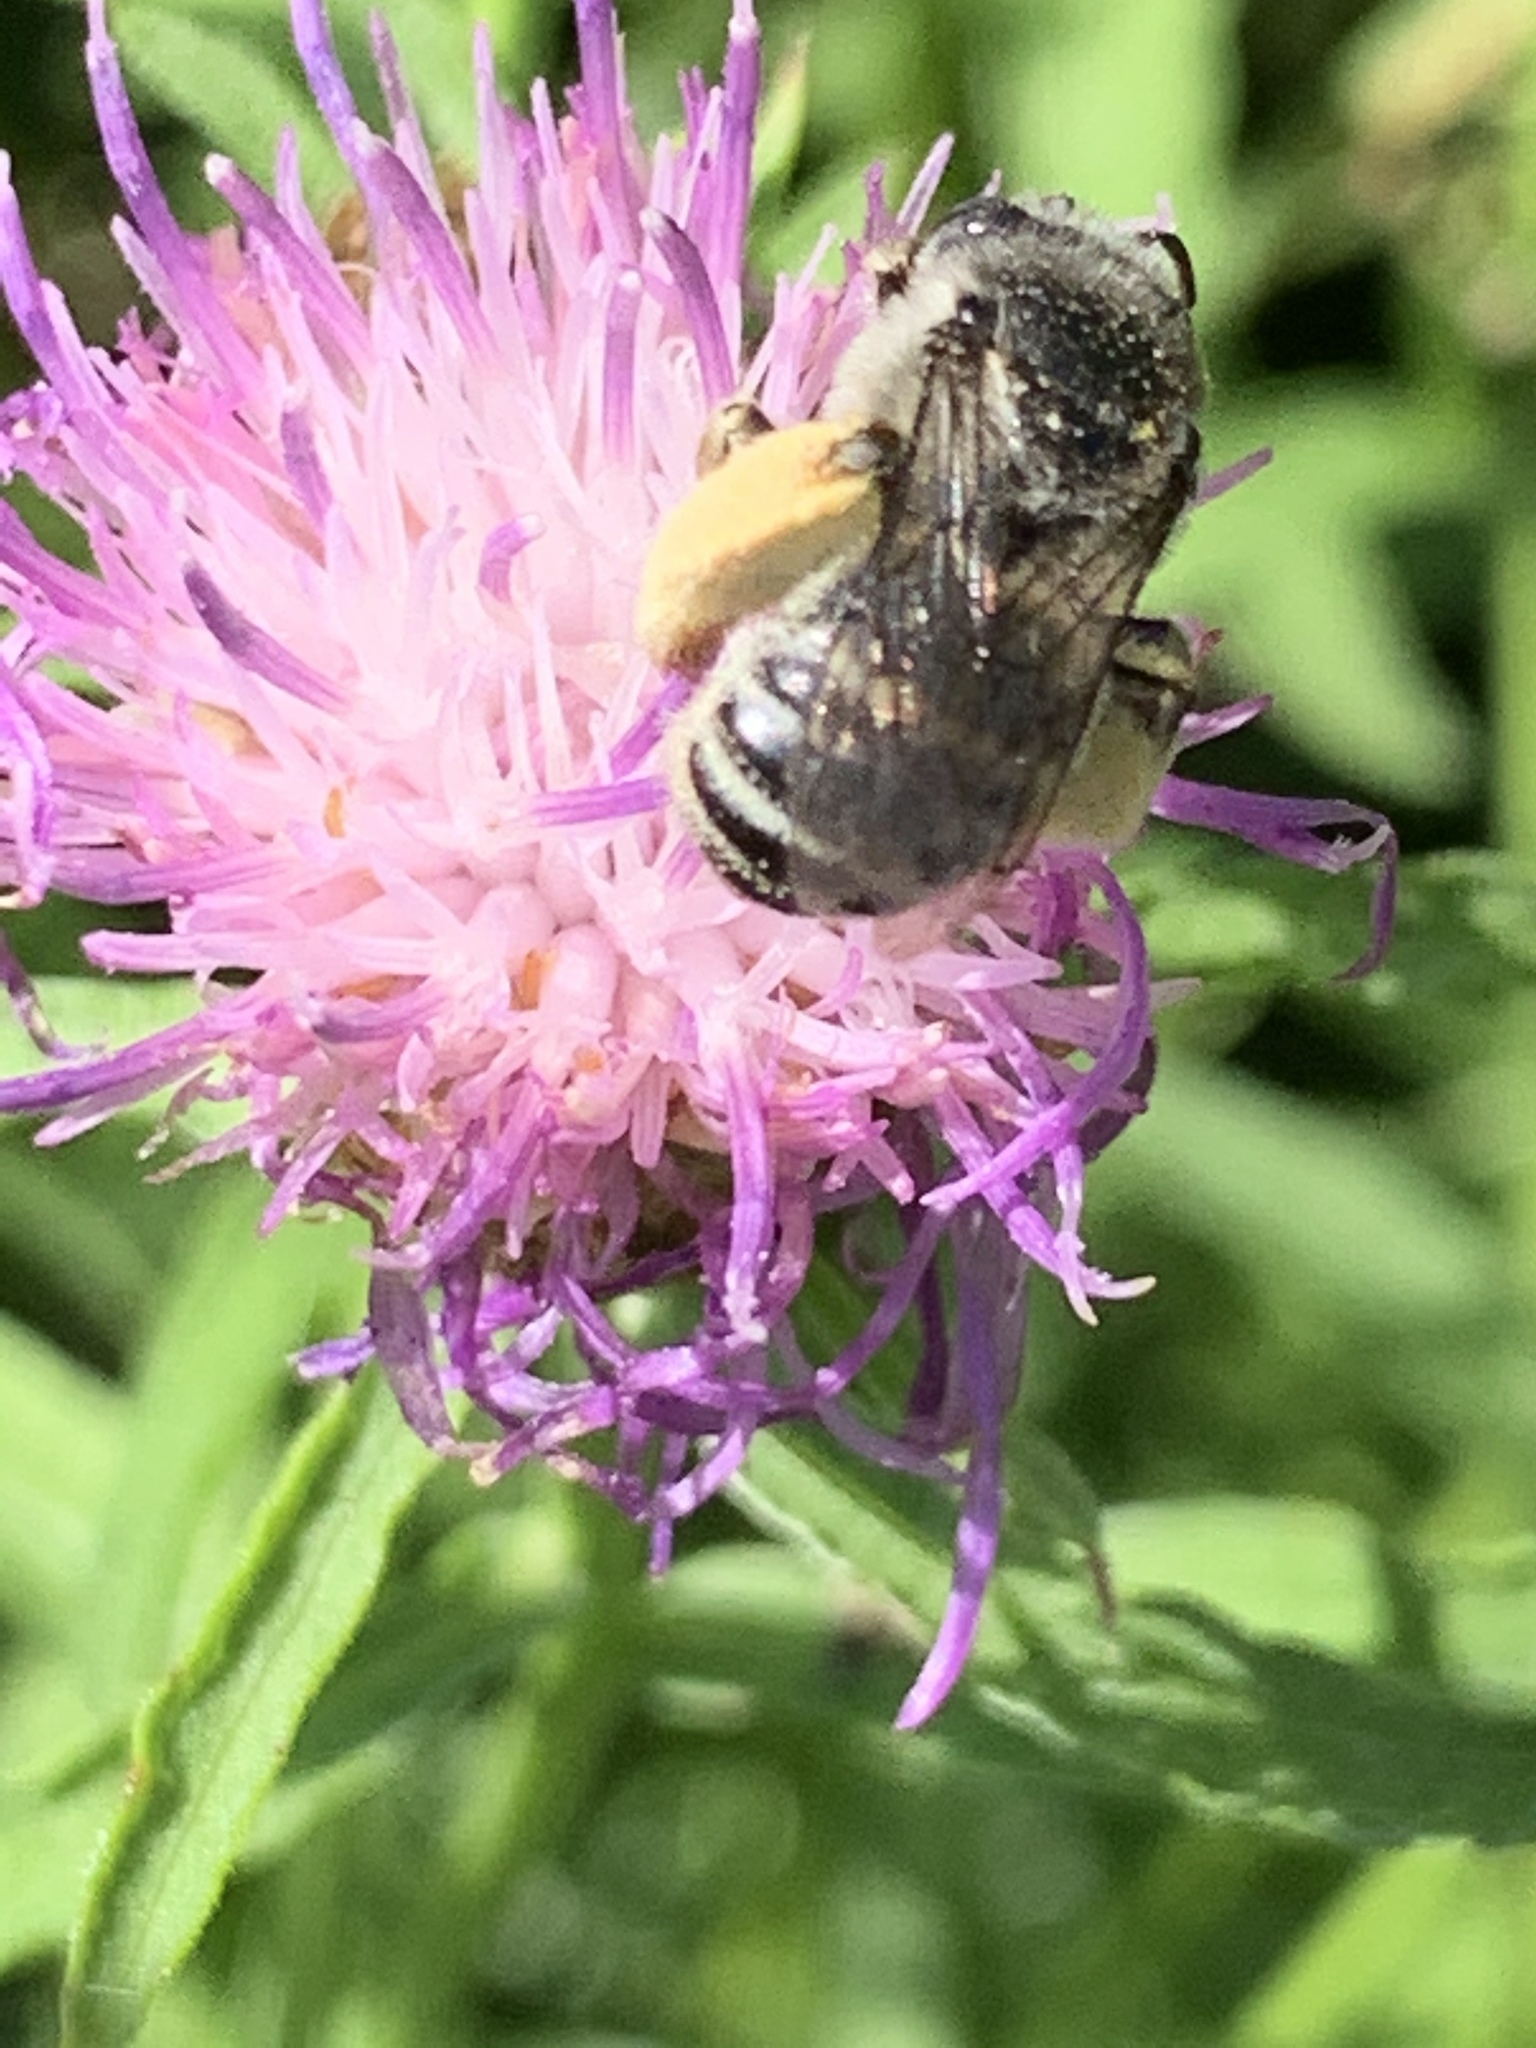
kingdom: Animalia
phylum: Arthropoda
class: Insecta
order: Hymenoptera
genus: Eumelissodes
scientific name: Eumelissodes
